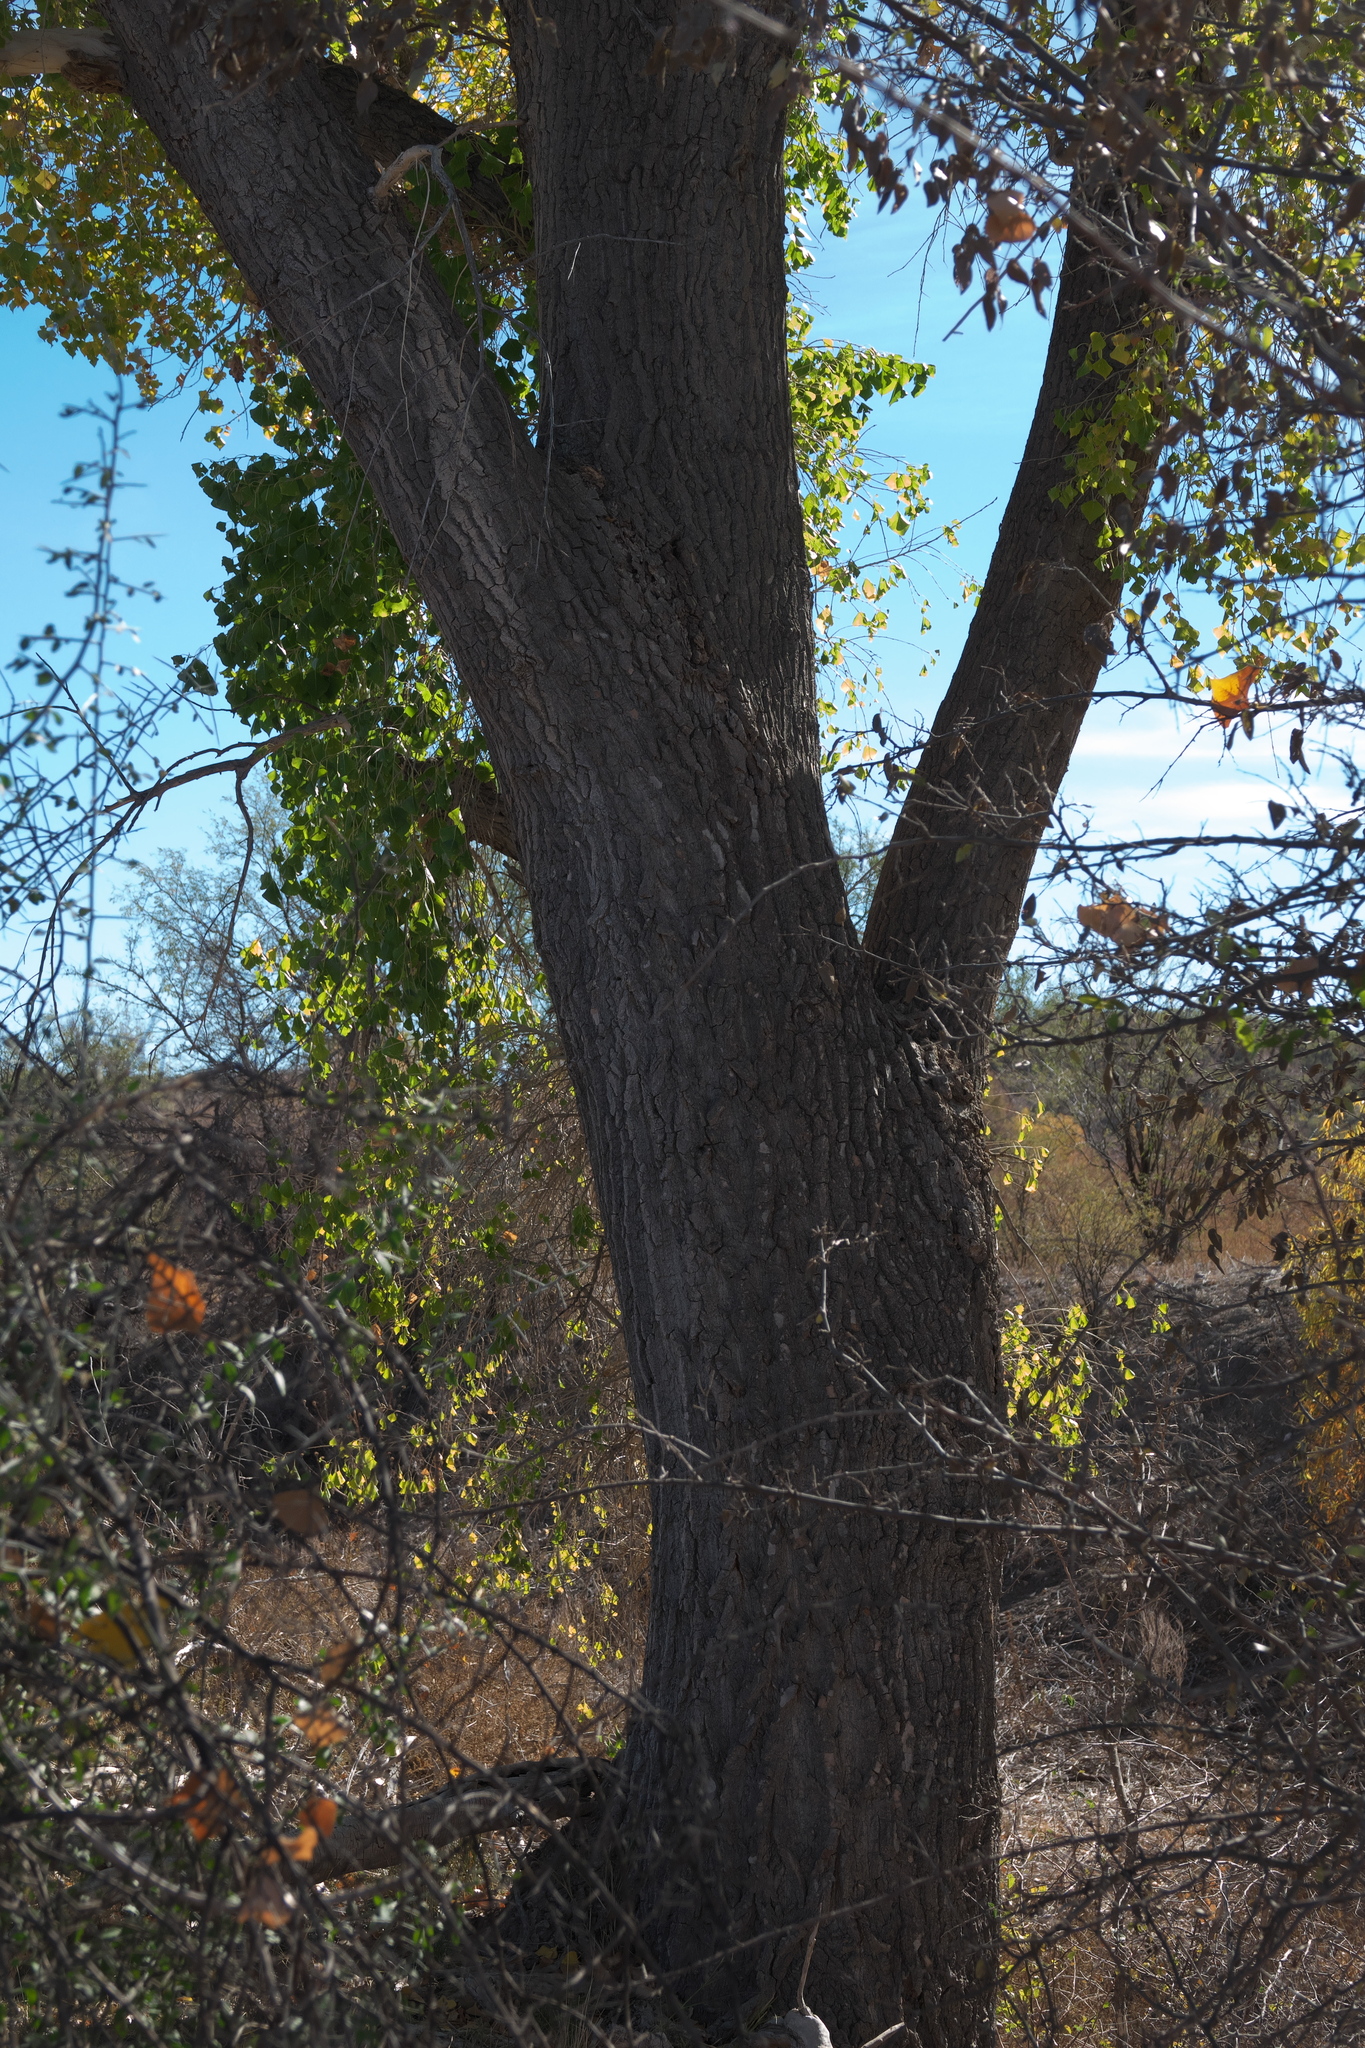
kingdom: Plantae
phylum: Tracheophyta
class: Magnoliopsida
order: Malpighiales
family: Salicaceae
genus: Populus
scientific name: Populus fremontii
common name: Fremont's cottonwood
